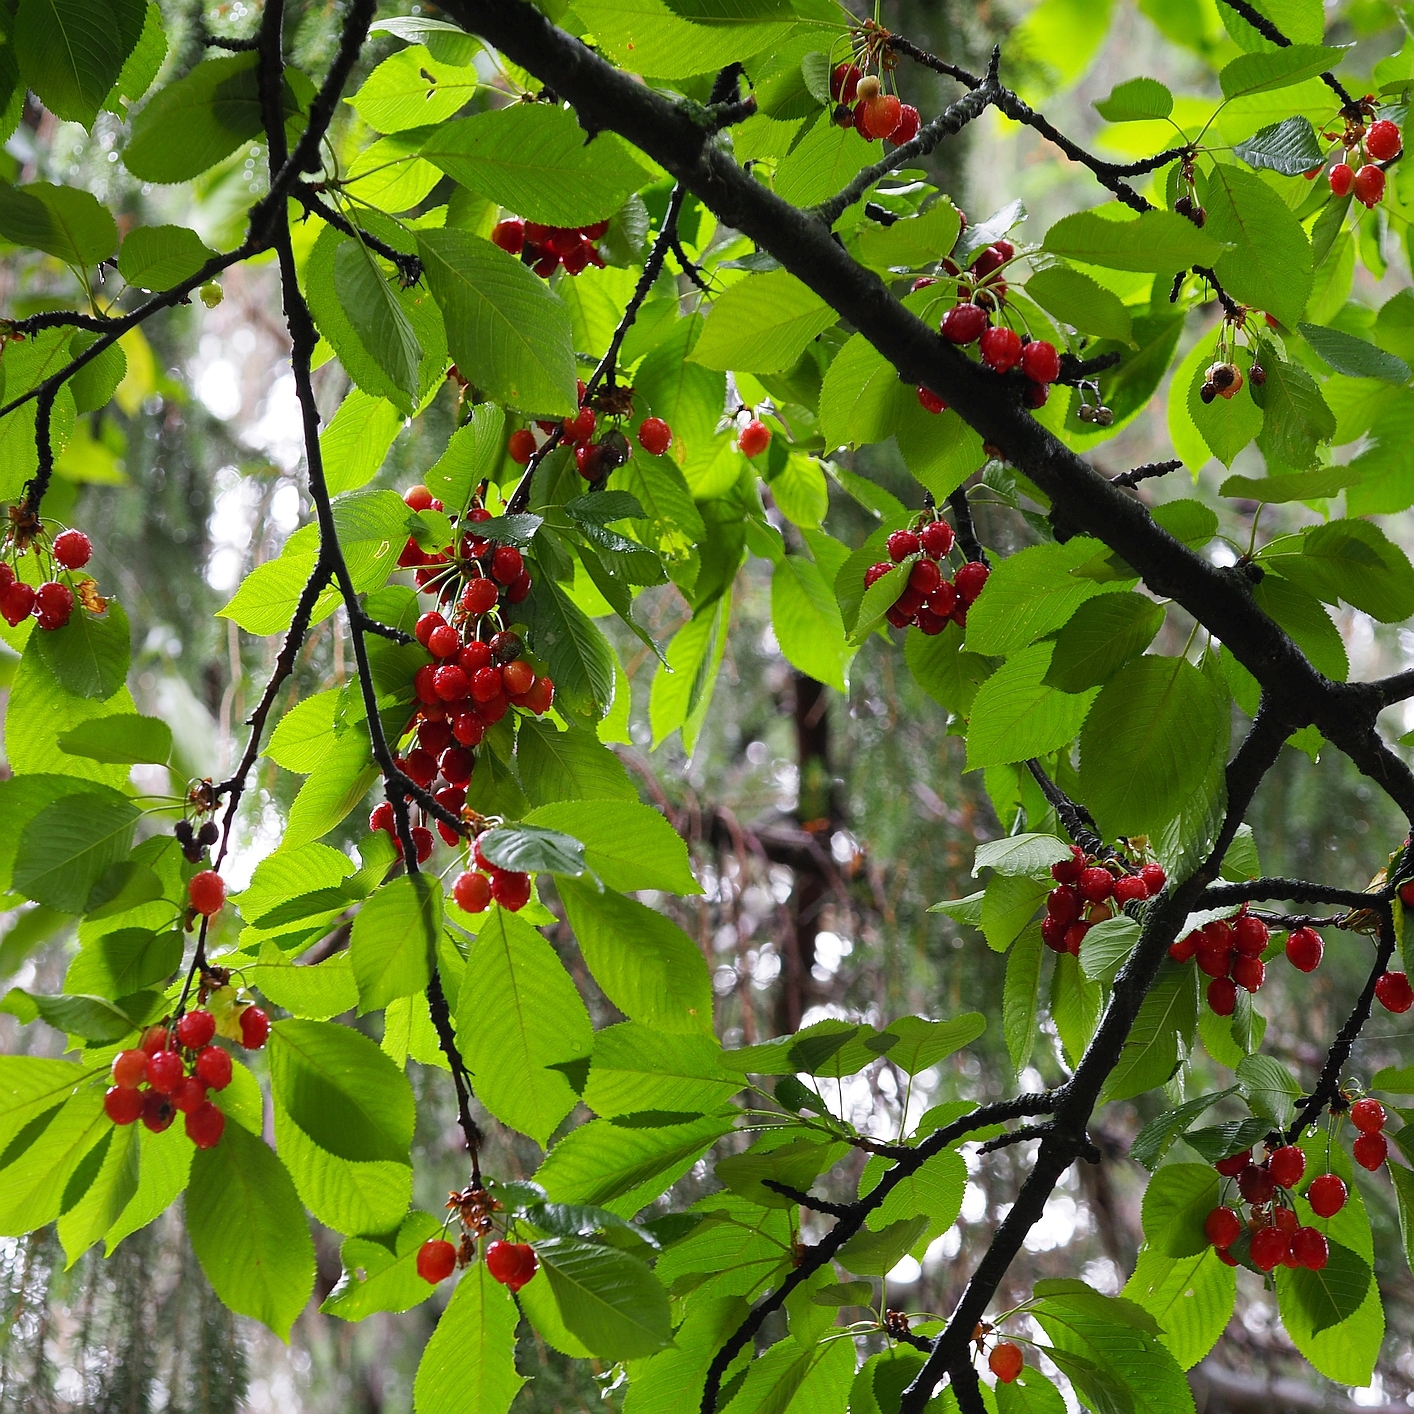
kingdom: Plantae
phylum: Tracheophyta
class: Magnoliopsida
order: Rosales
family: Rosaceae
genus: Prunus
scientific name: Prunus avium
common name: Sweet cherry
